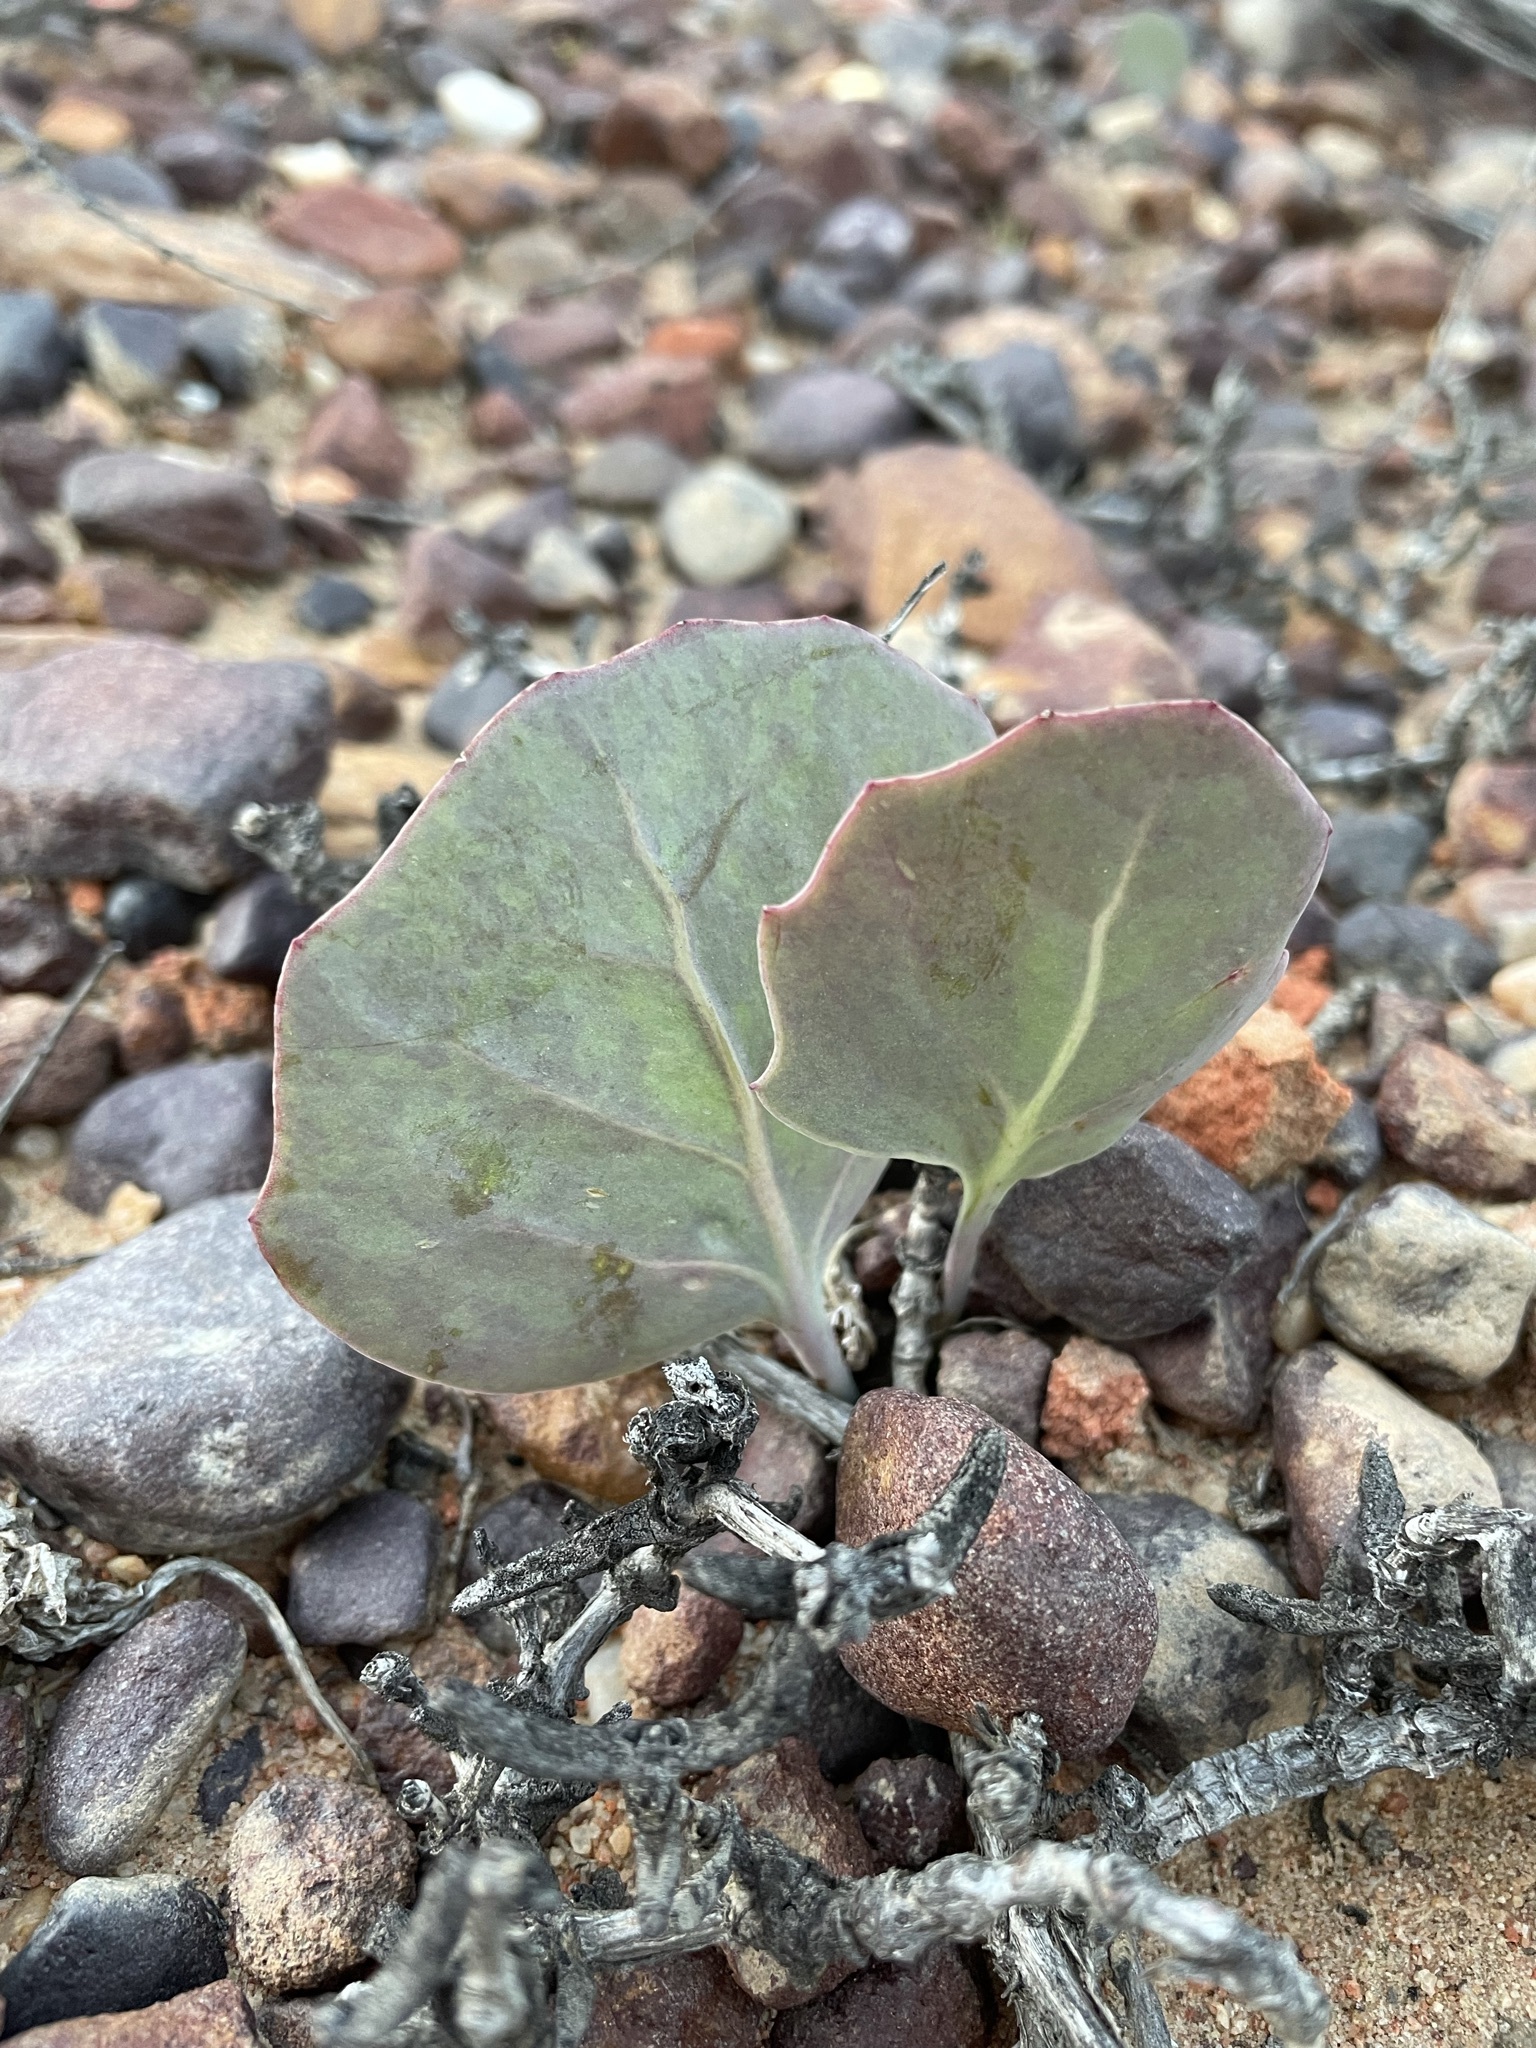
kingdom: Plantae
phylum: Tracheophyta
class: Magnoliopsida
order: Asterales
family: Asteraceae
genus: Othonna
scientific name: Othonna hederifolia
